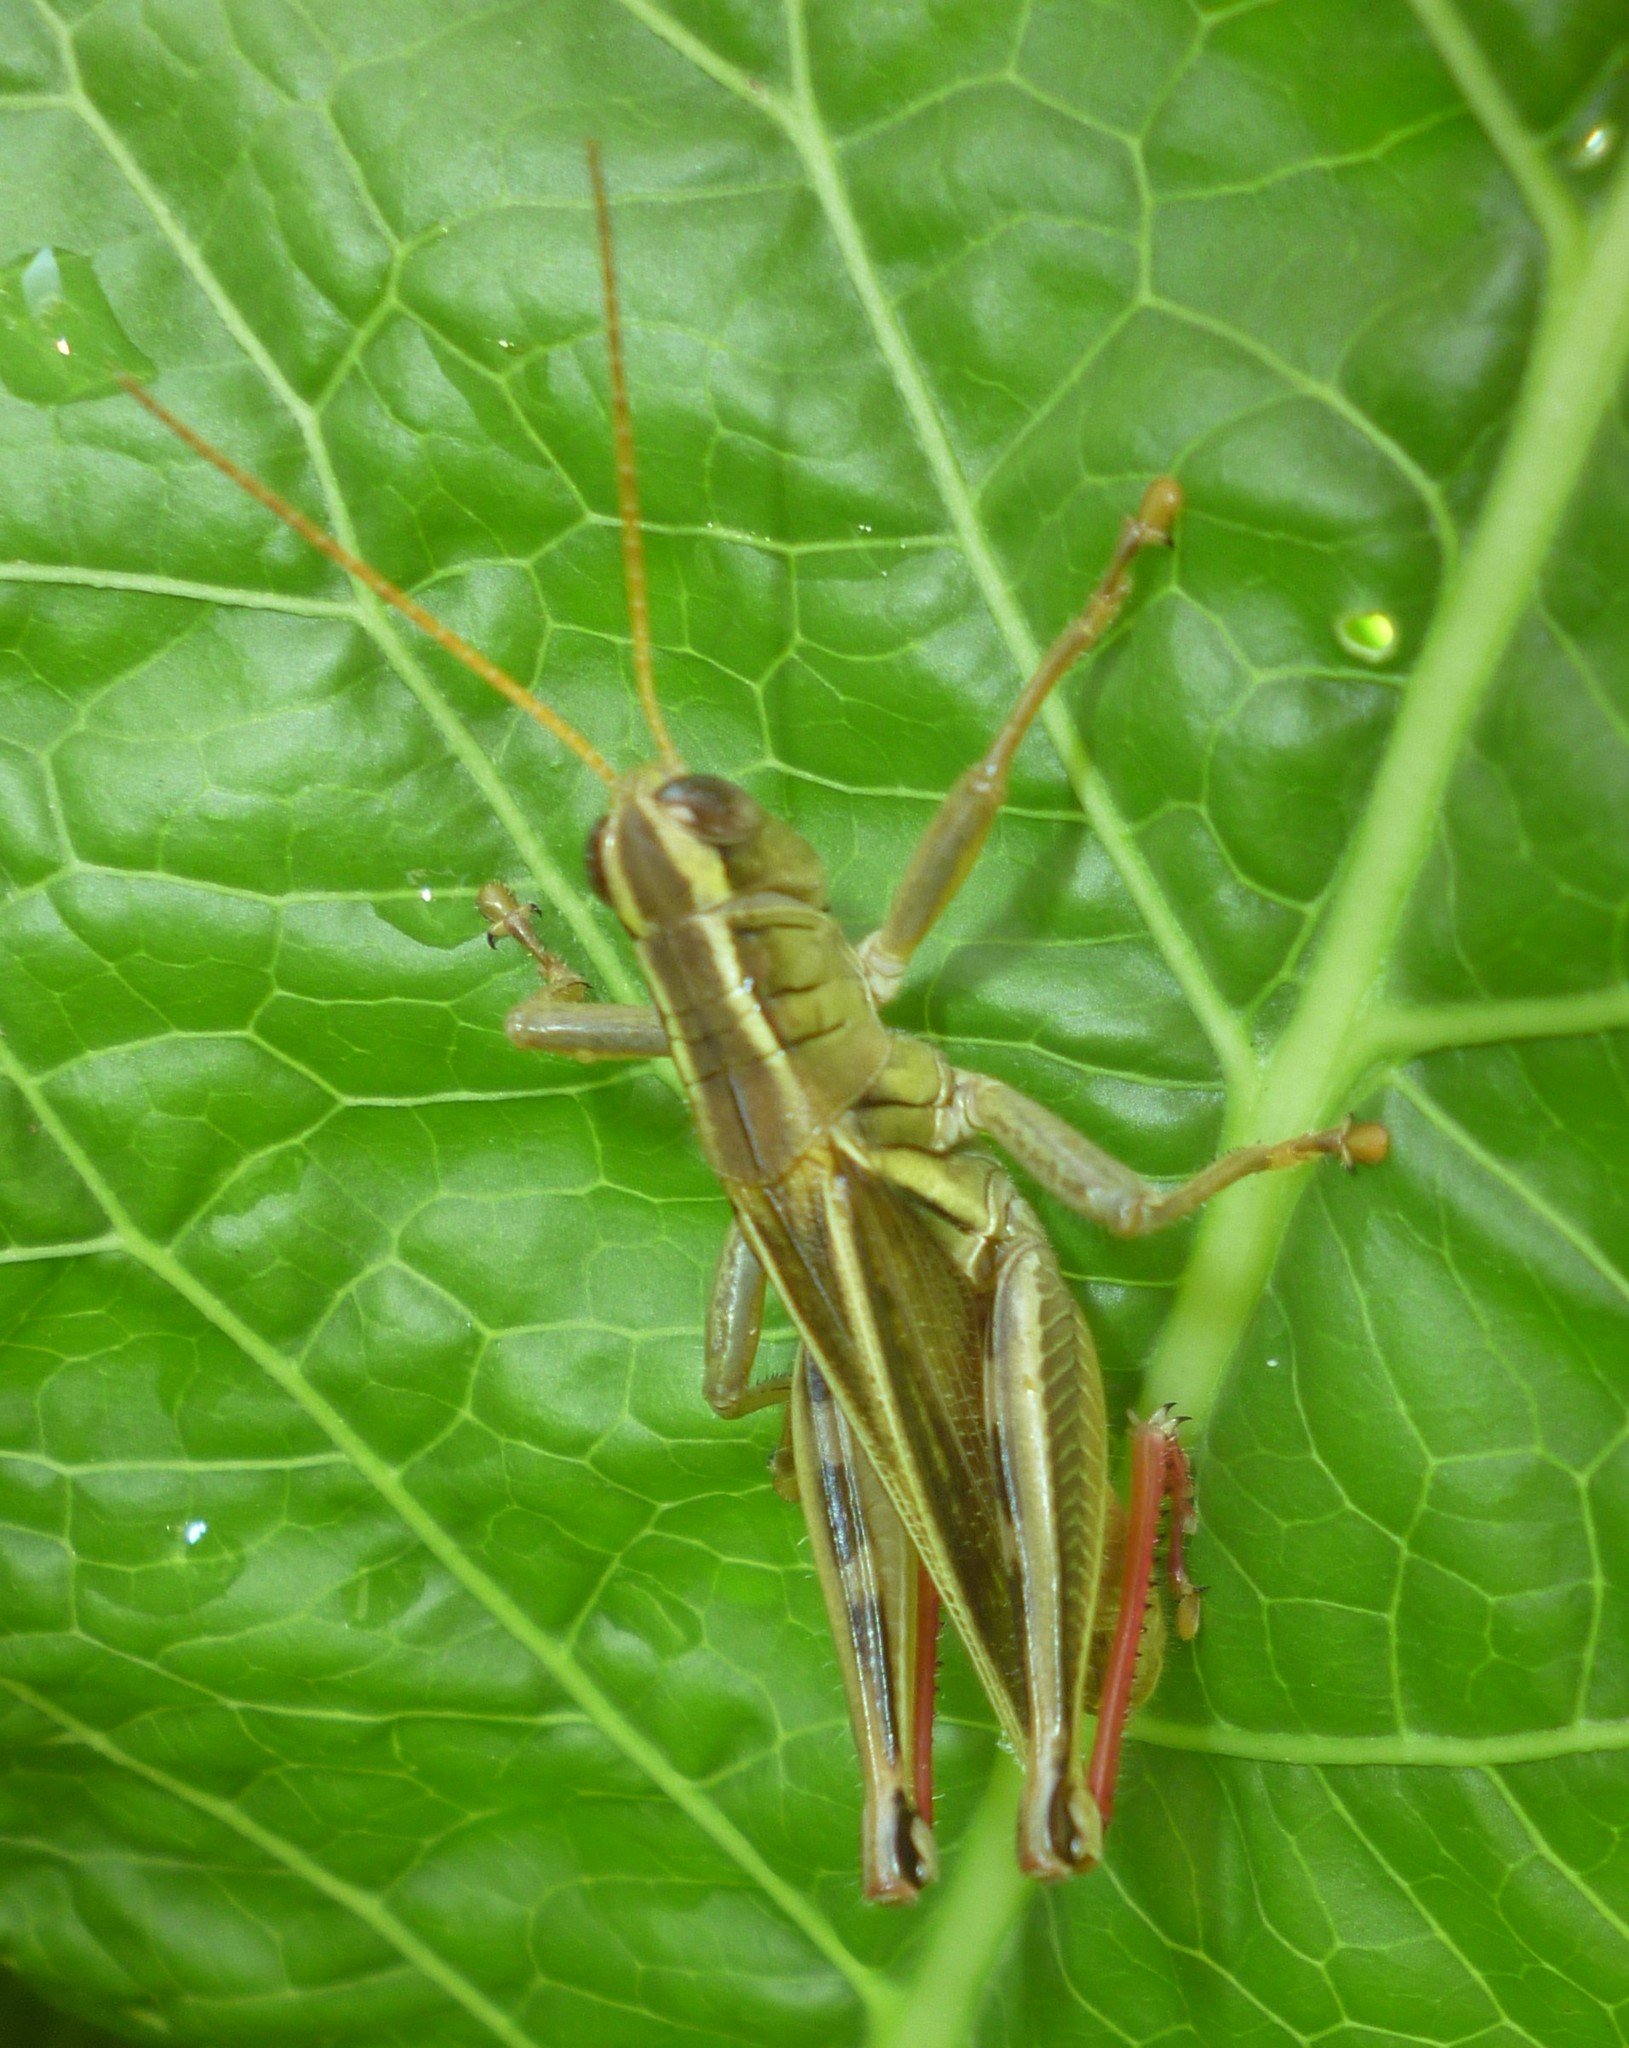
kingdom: Animalia
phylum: Arthropoda
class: Insecta
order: Orthoptera
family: Acrididae
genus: Melanoplus
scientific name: Melanoplus bivittatus
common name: Two-striped grasshopper
